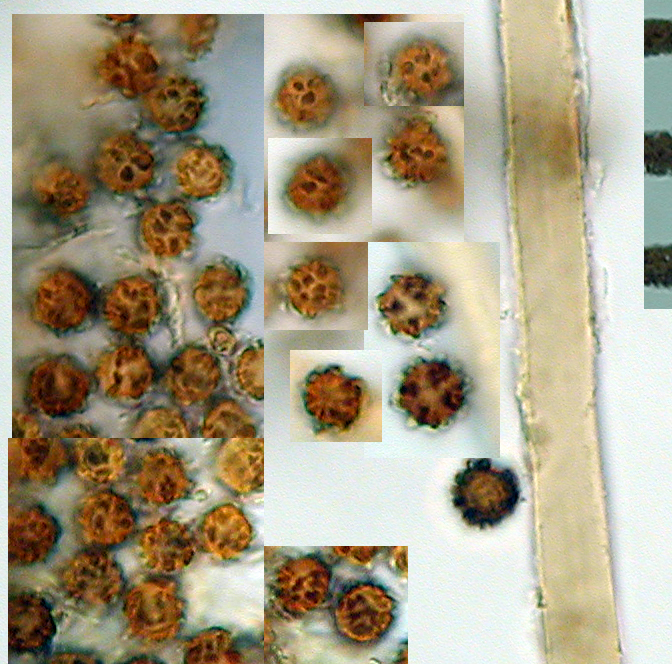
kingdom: Fungi
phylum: Basidiomycota
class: Agaricomycetes
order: Geastrales
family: Geastraceae
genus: Geastrum
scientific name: Geastrum coronatum
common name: Crowned earthstar
